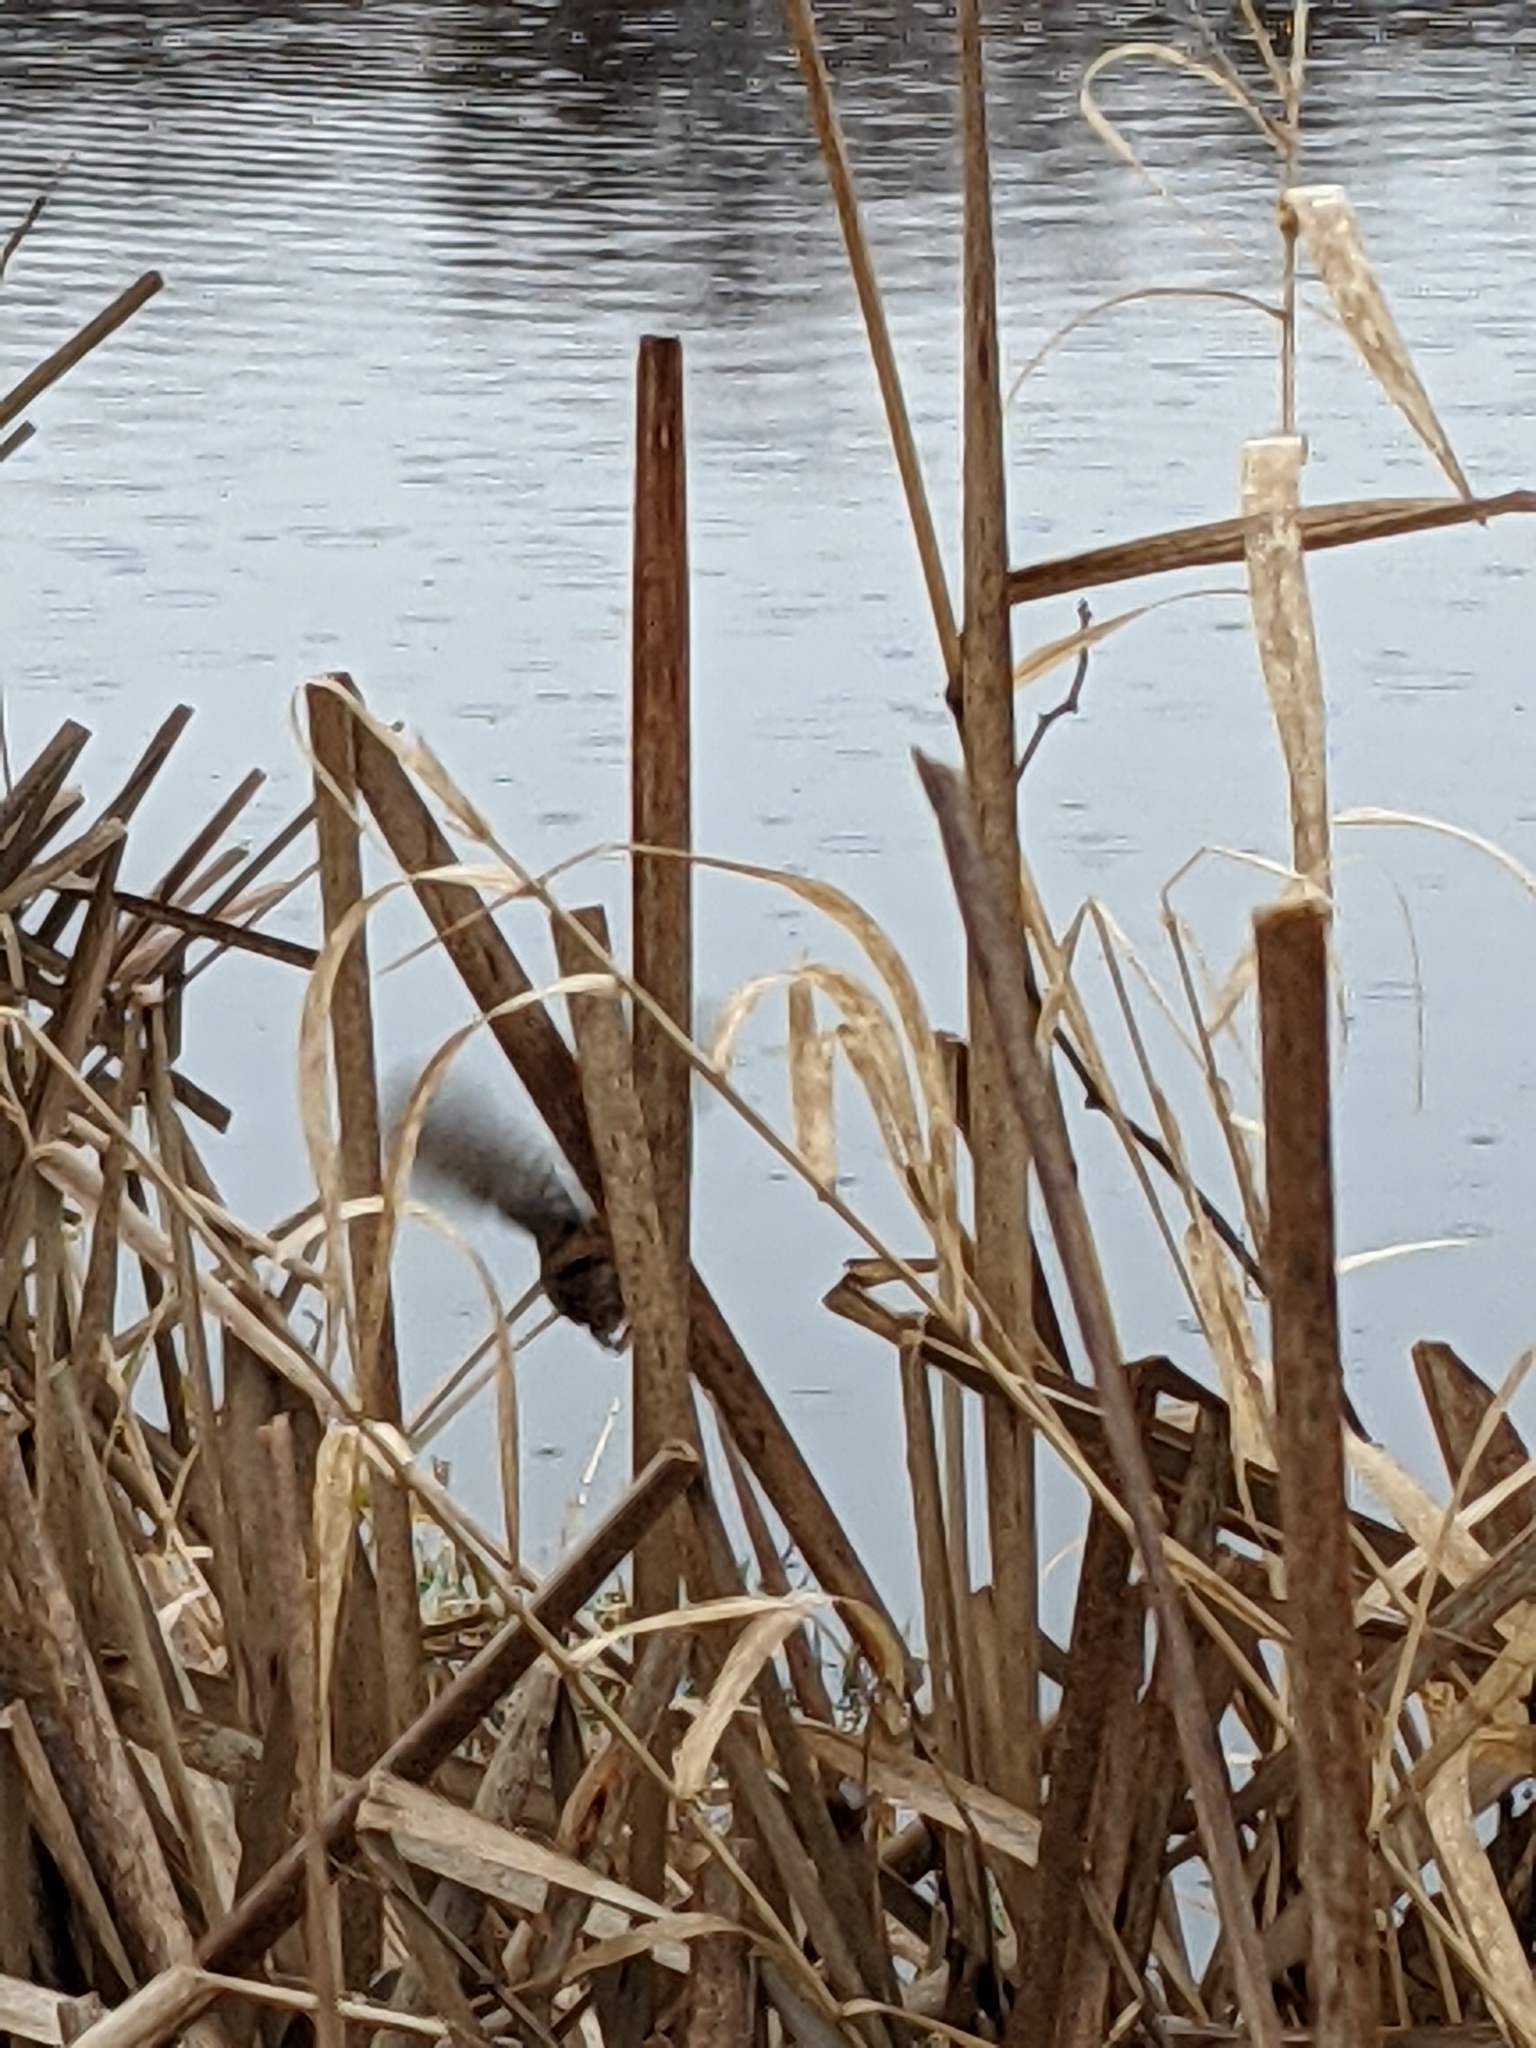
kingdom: Animalia
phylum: Chordata
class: Aves
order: Passeriformes
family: Troglodytidae
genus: Cistothorus
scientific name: Cistothorus palustris
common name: Marsh wren
